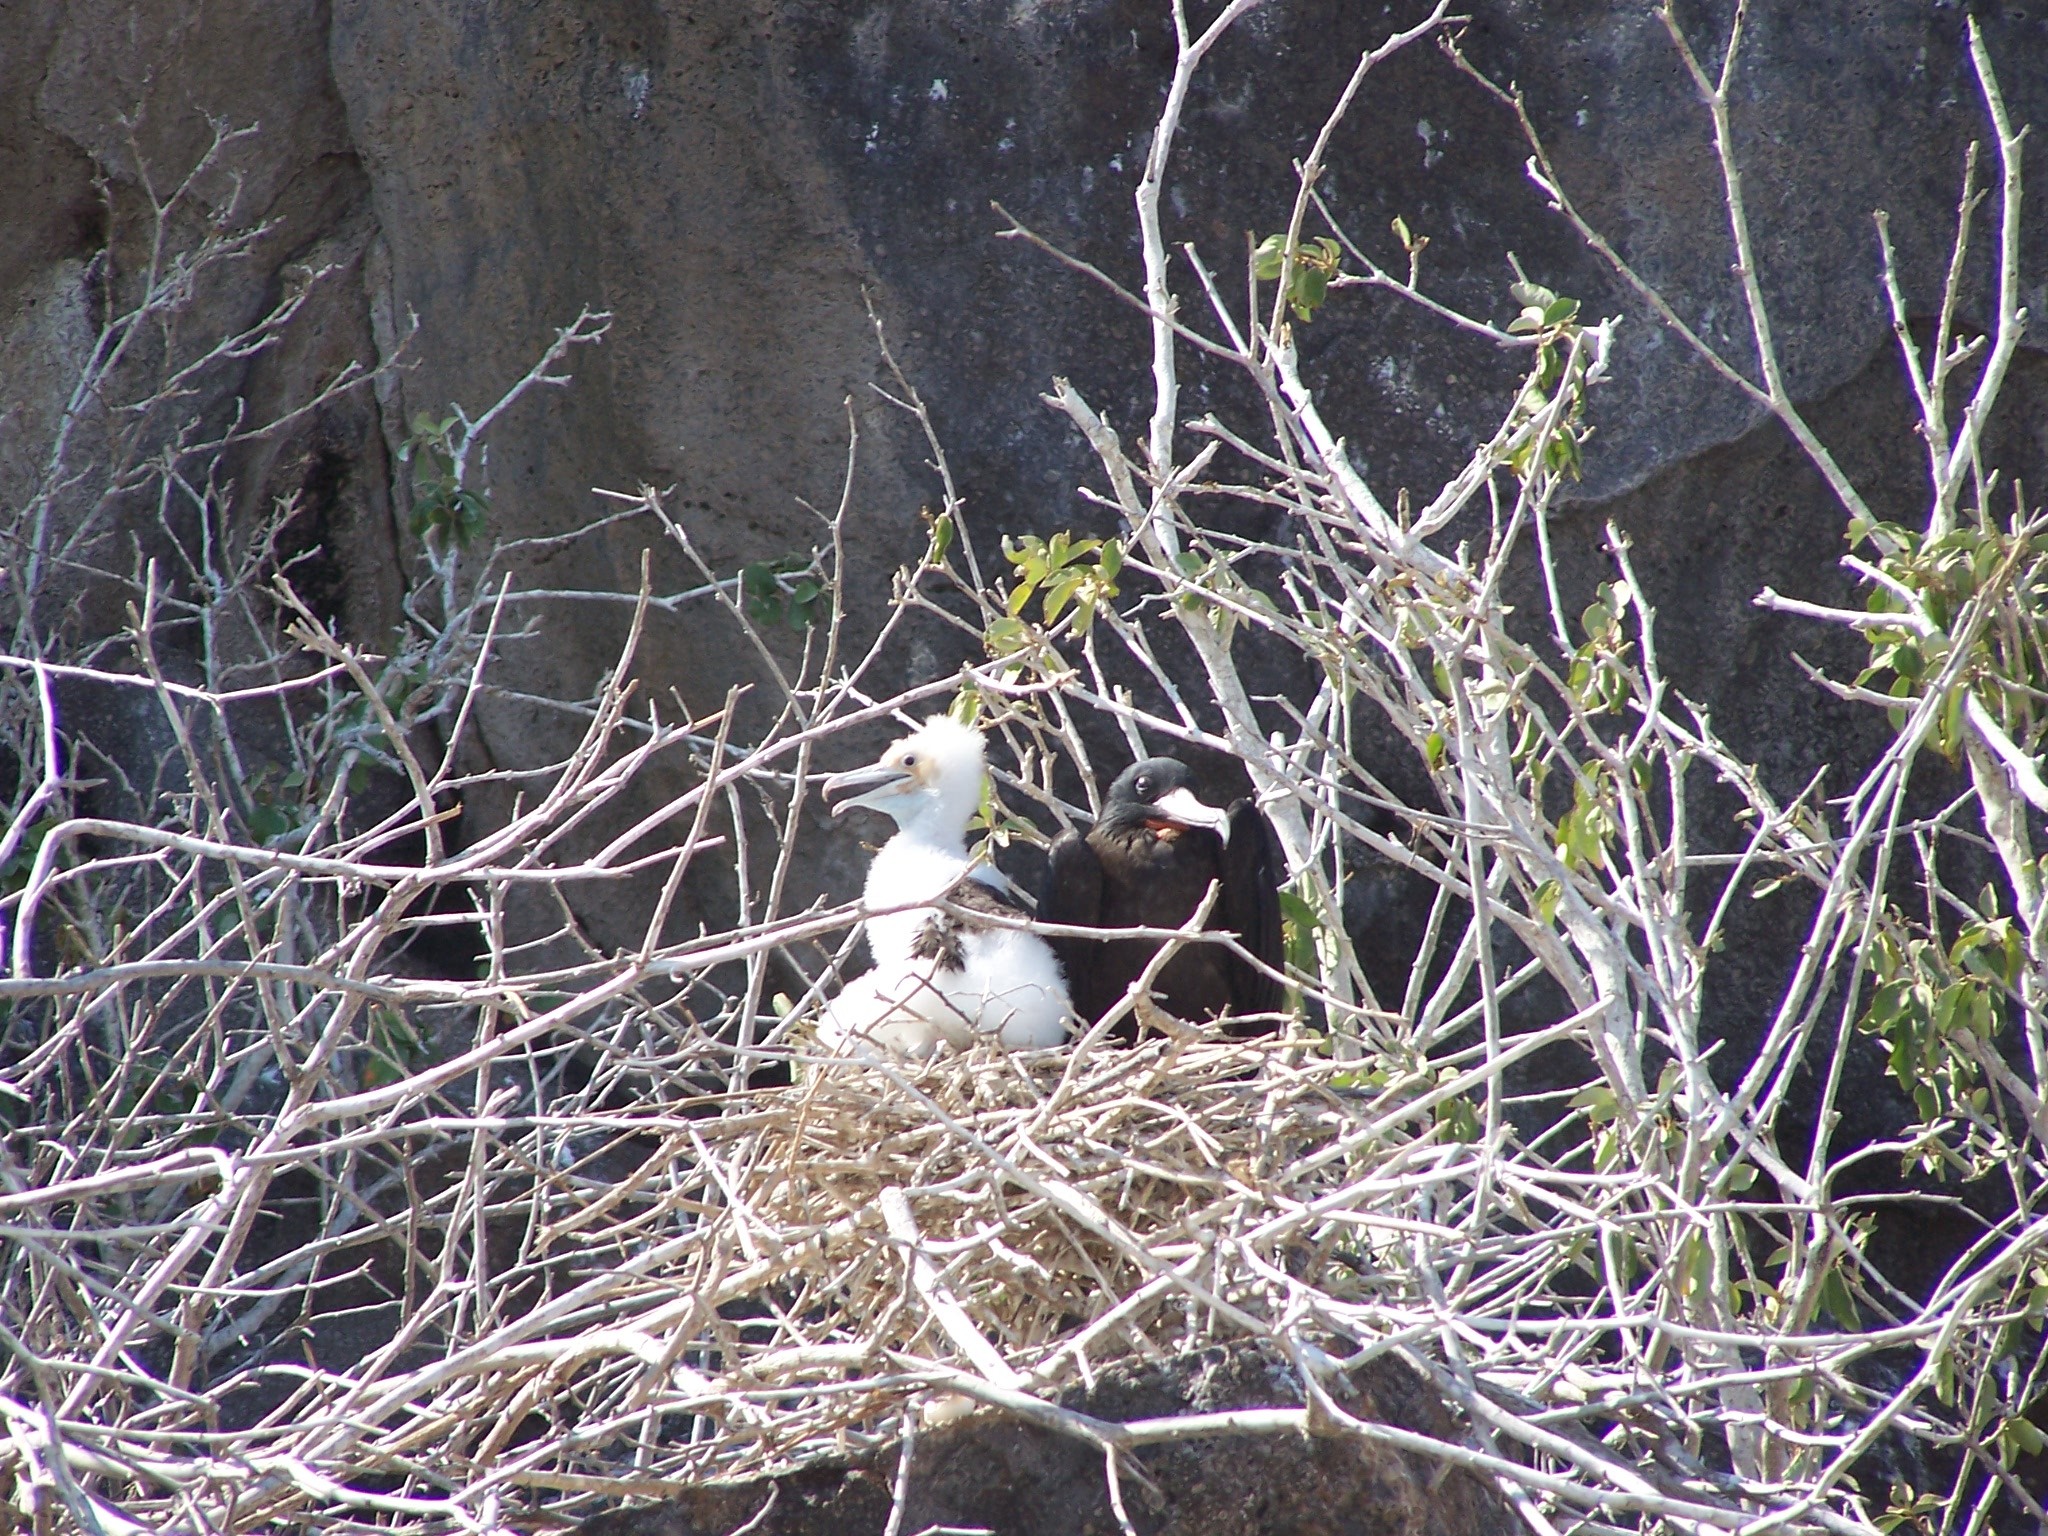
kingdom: Animalia
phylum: Chordata
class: Aves
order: Suliformes
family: Fregatidae
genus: Fregata
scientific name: Fregata minor
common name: Great frigatebird
